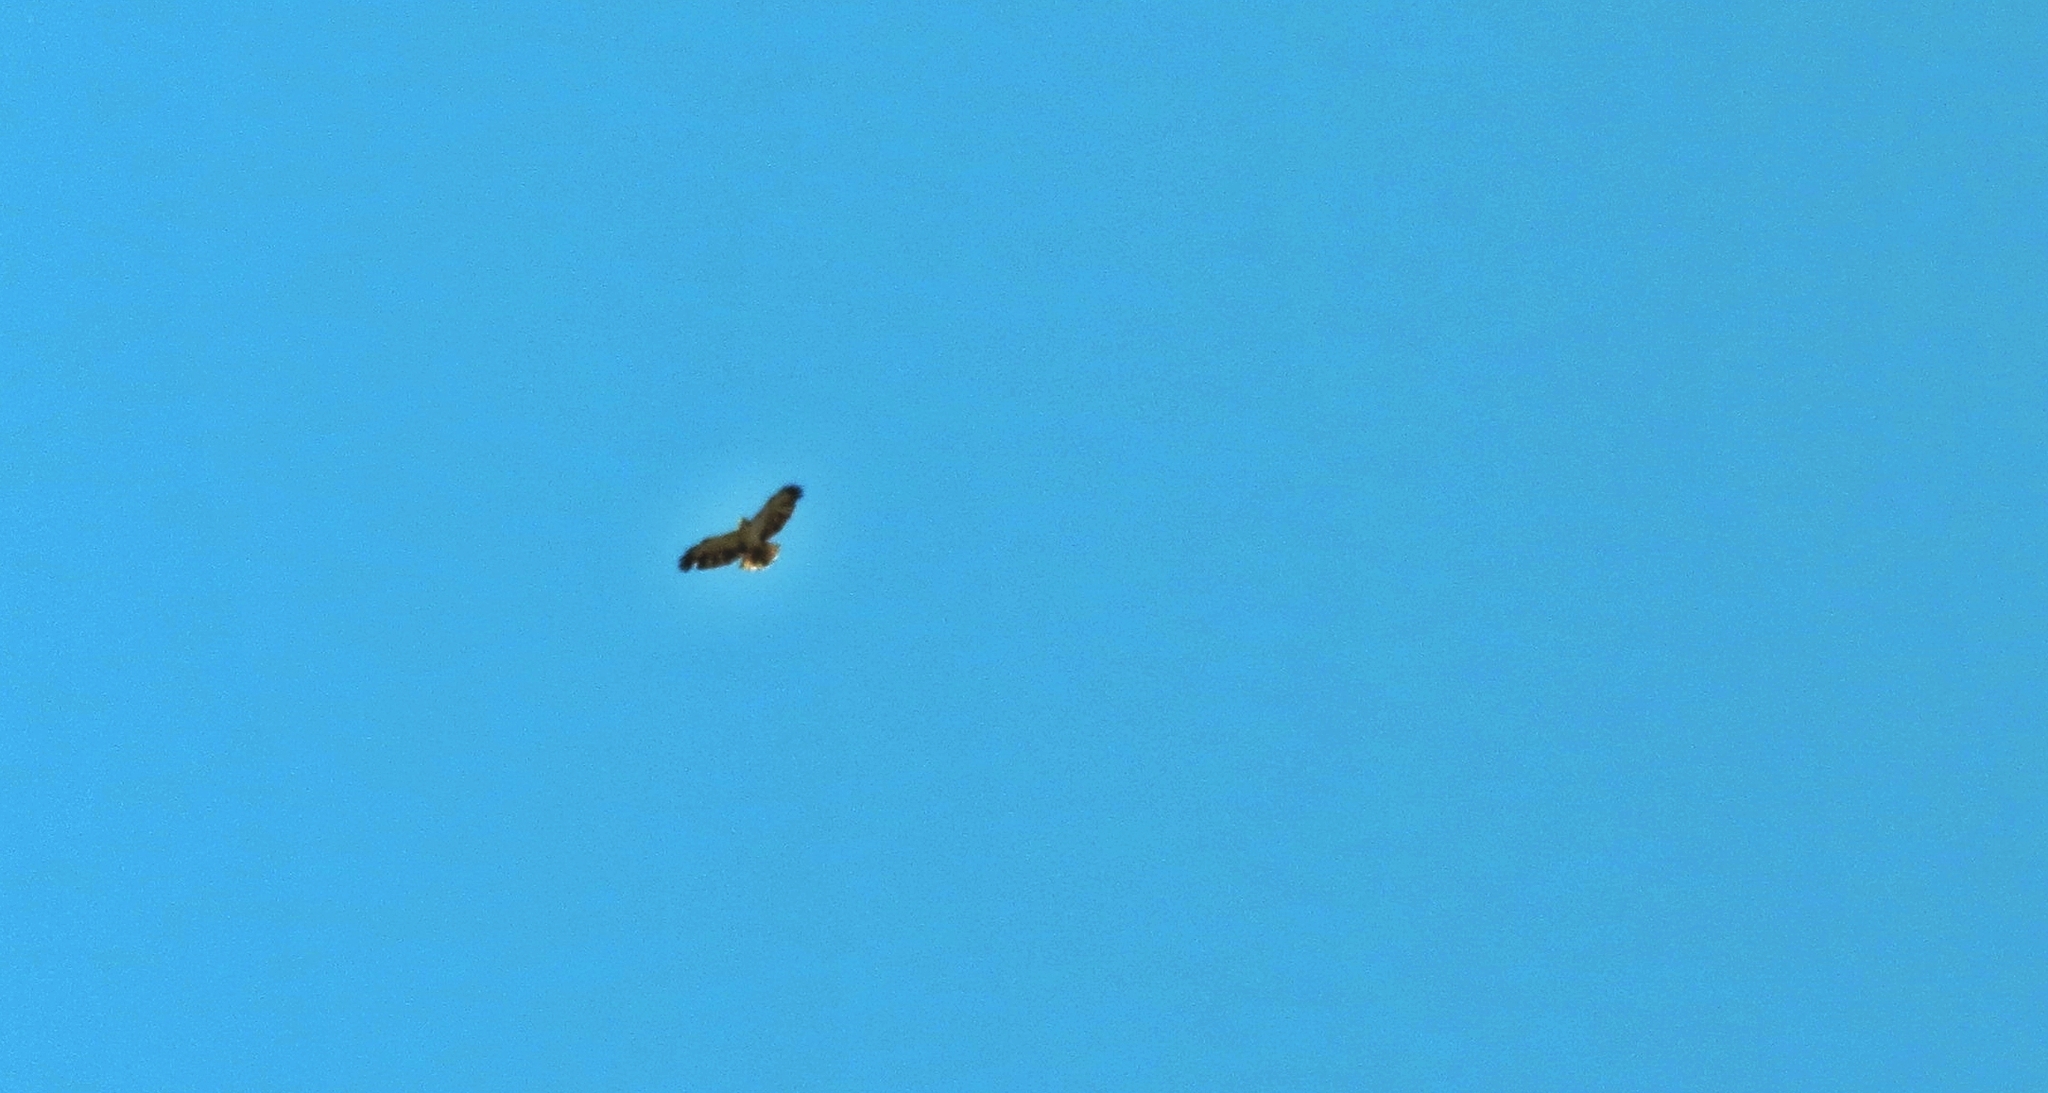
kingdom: Animalia
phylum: Chordata
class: Aves
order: Accipitriformes
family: Accipitridae
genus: Buteo
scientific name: Buteo brachyurus
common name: Short-tailed hawk
